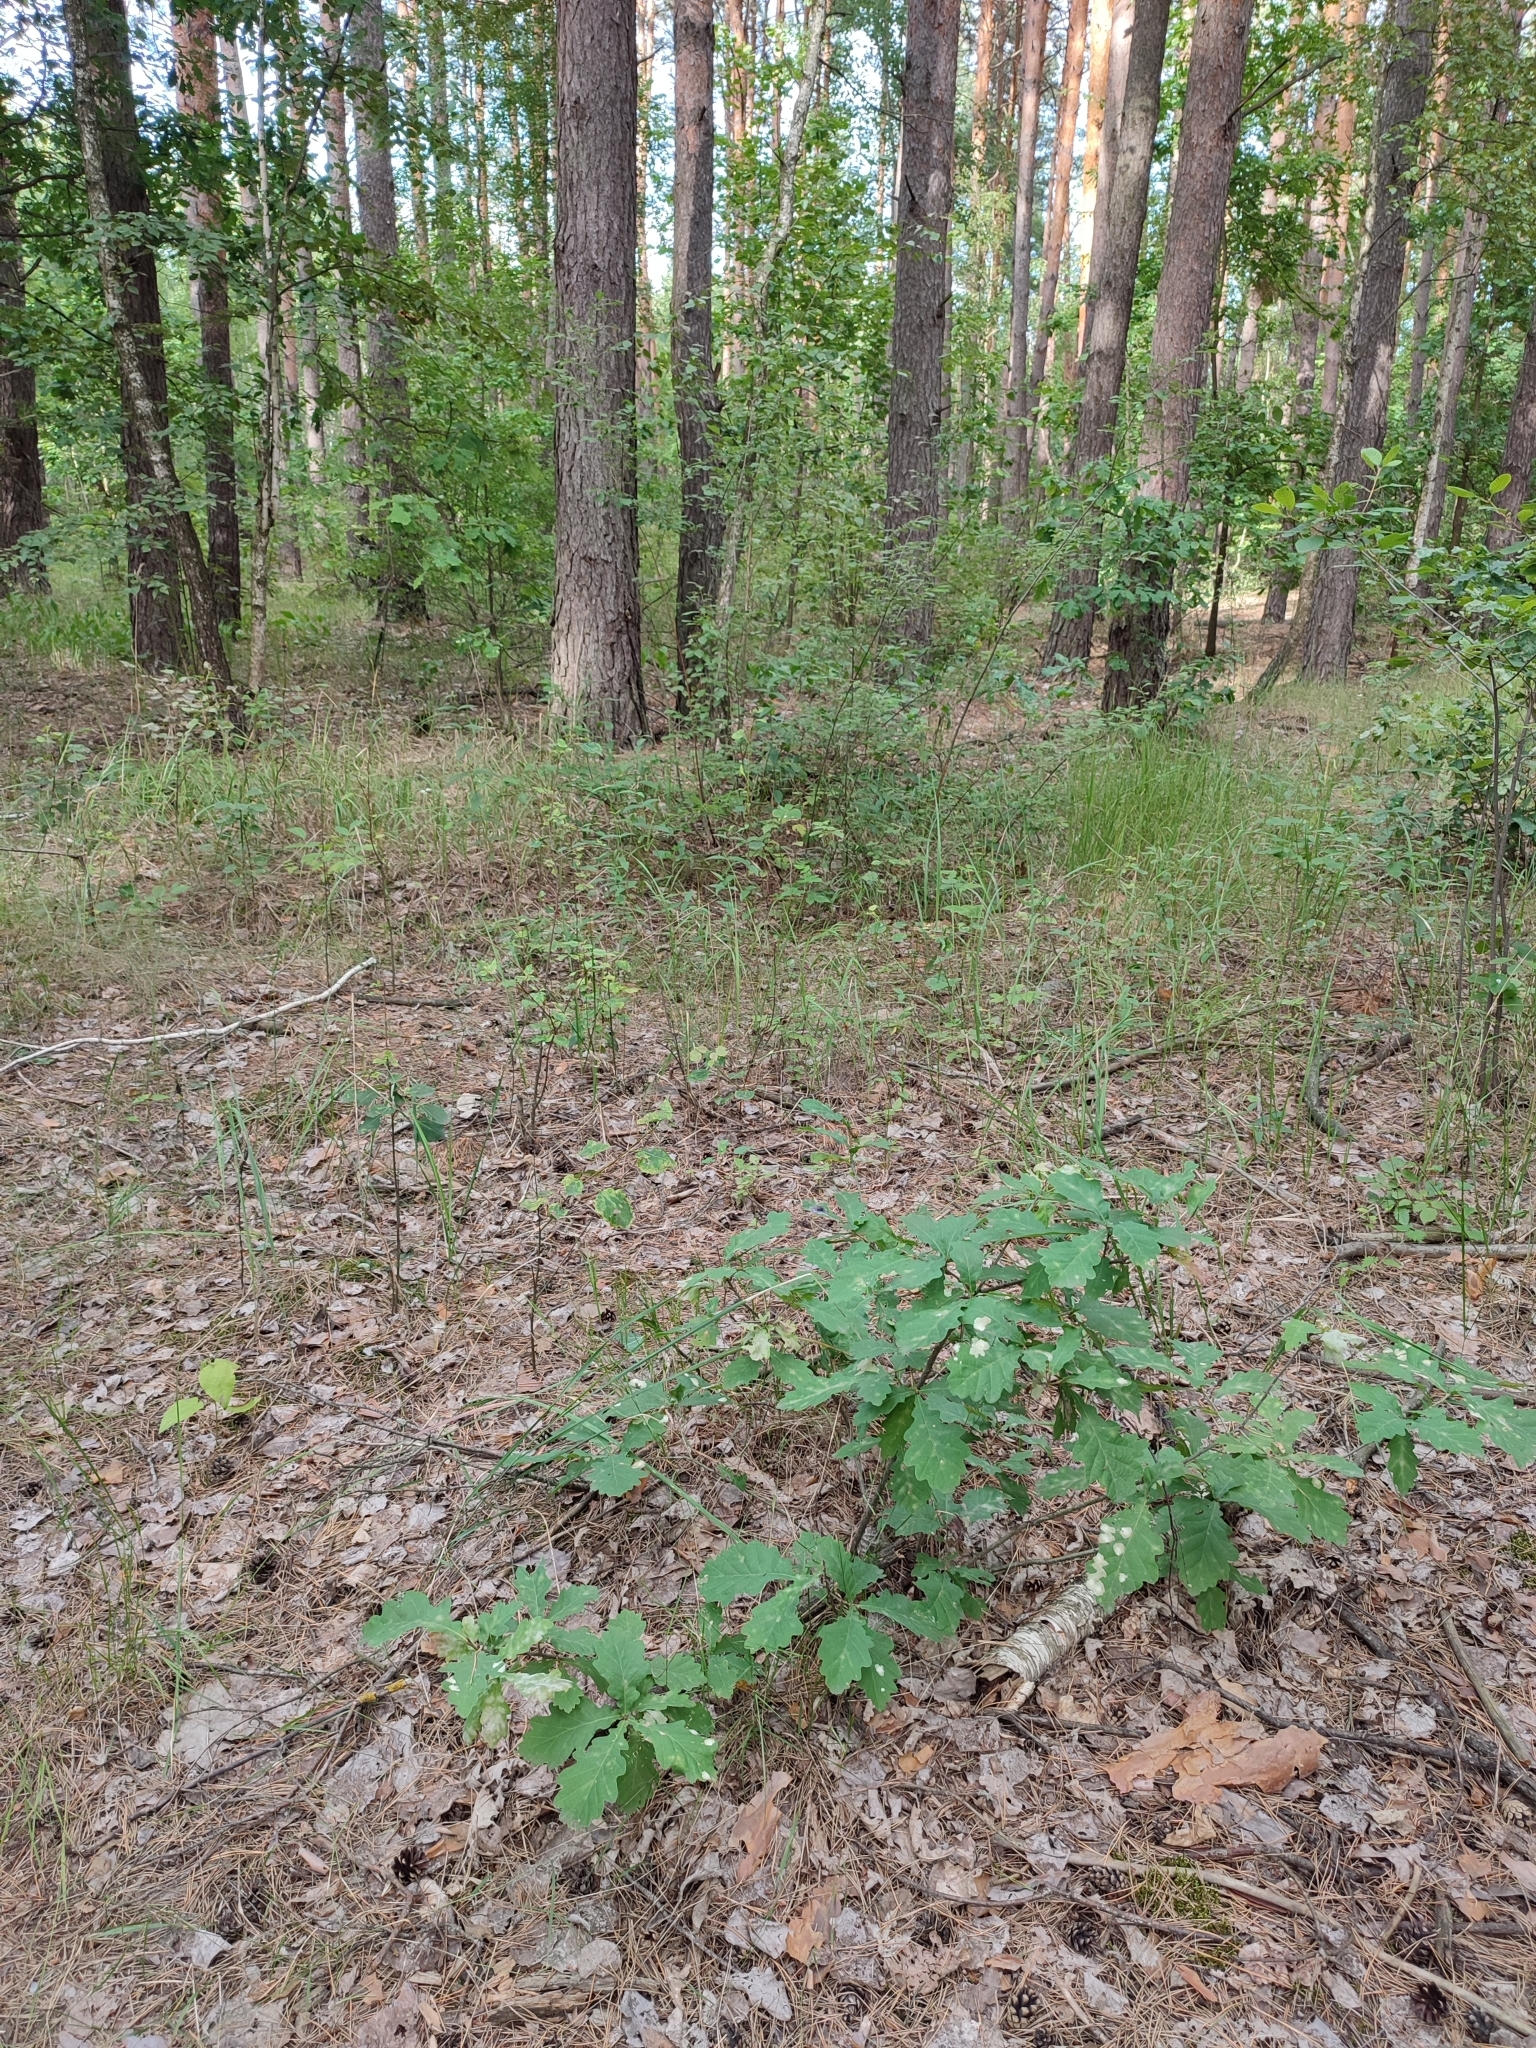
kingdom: Plantae
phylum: Tracheophyta
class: Magnoliopsida
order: Fagales
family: Fagaceae
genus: Quercus
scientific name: Quercus robur
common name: Pedunculate oak
